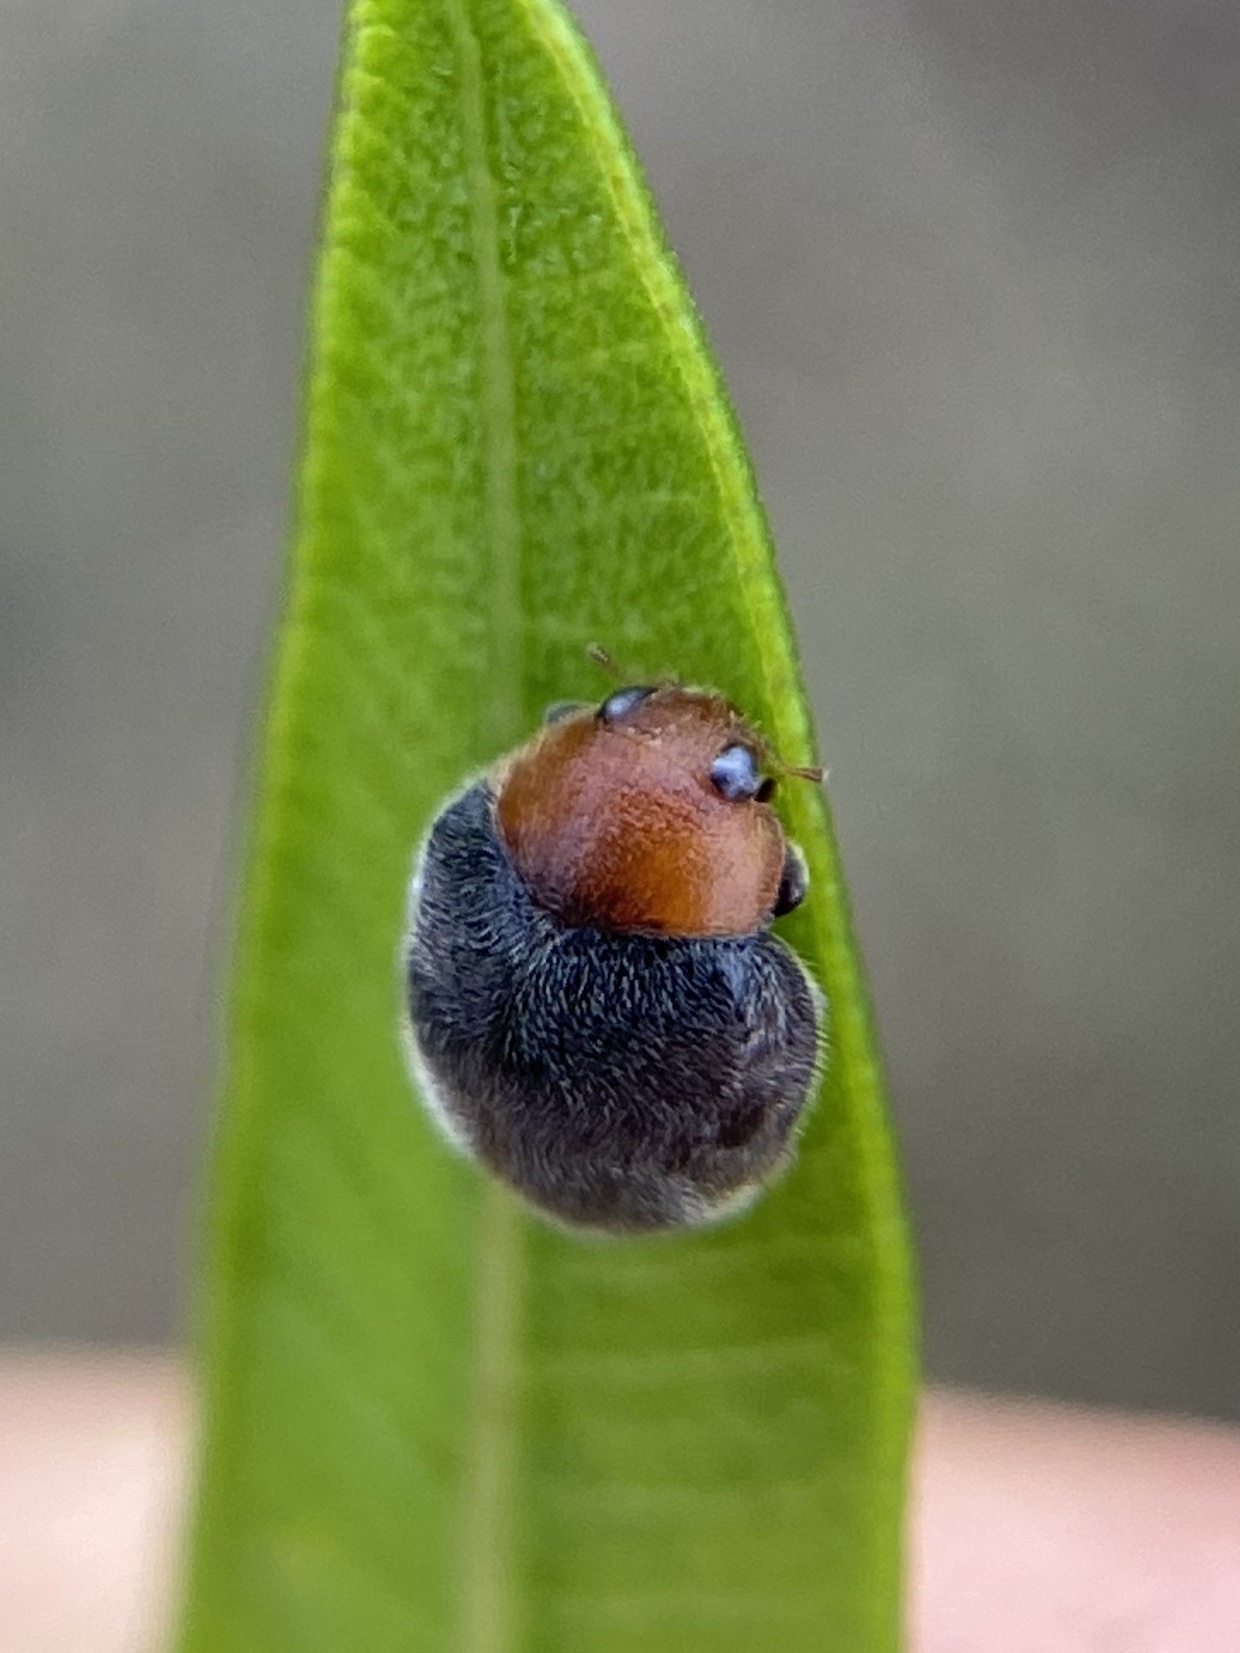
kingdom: Animalia
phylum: Arthropoda
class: Insecta
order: Coleoptera
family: Coccinellidae
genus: Cryptolaemus
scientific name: Cryptolaemus montrouzieri
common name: Mealybug destroyer
